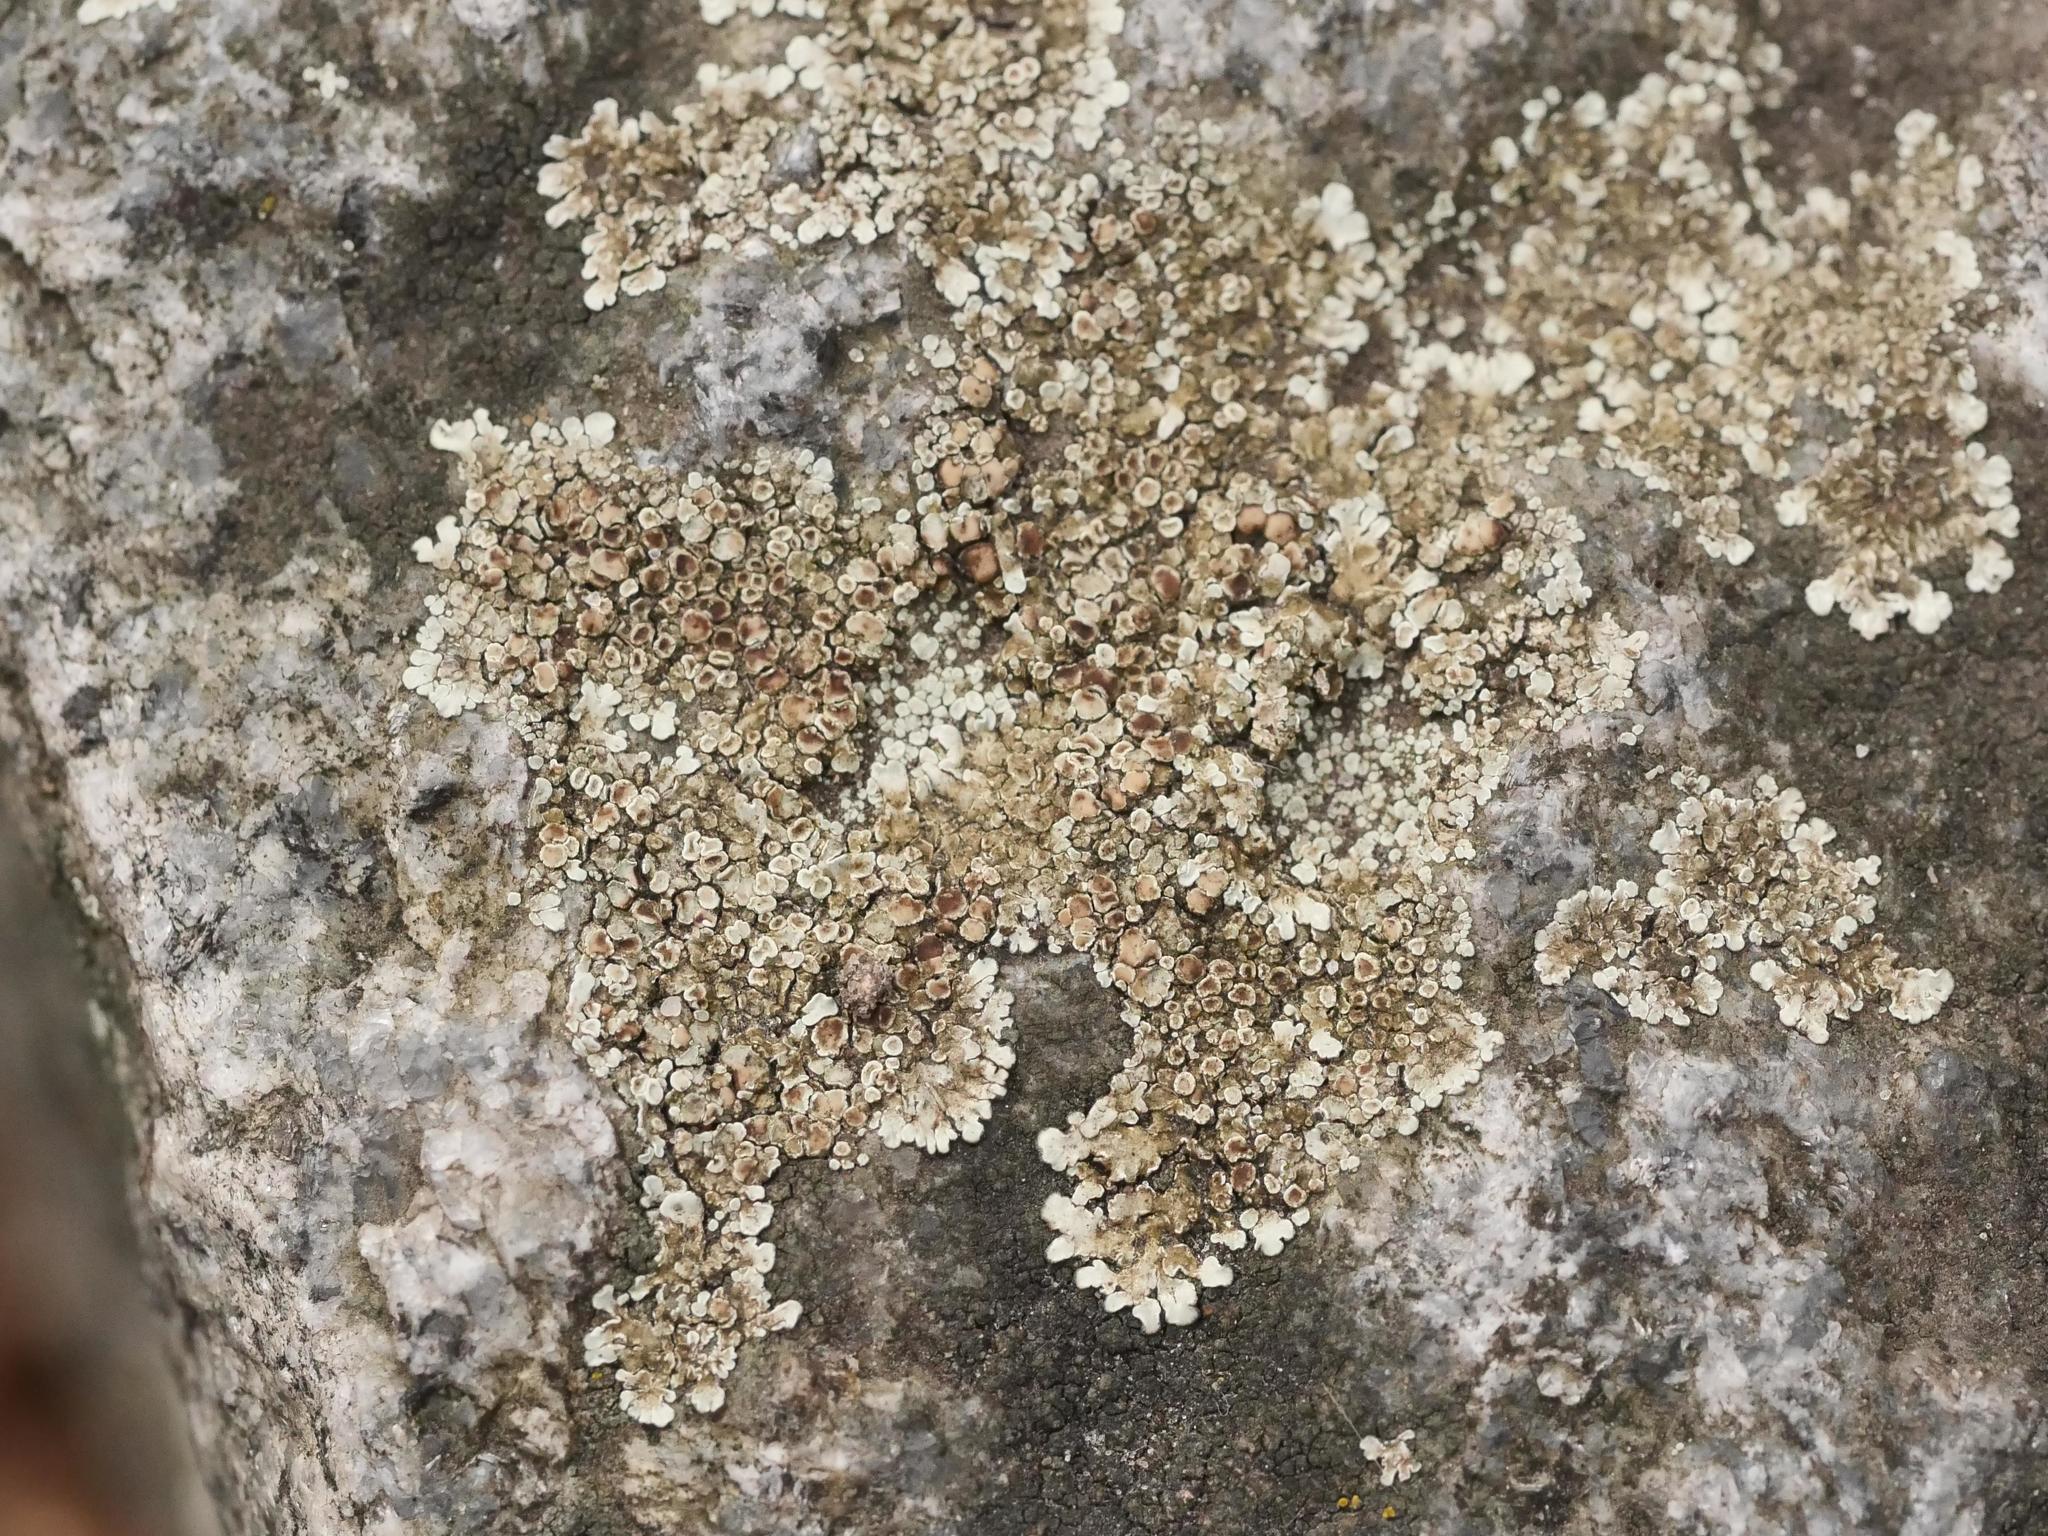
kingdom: Fungi
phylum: Ascomycota
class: Lecanoromycetes
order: Lecanorales
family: Lecanoraceae
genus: Protoparmeliopsis
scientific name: Protoparmeliopsis muralis
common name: Stonewall rim lichen
